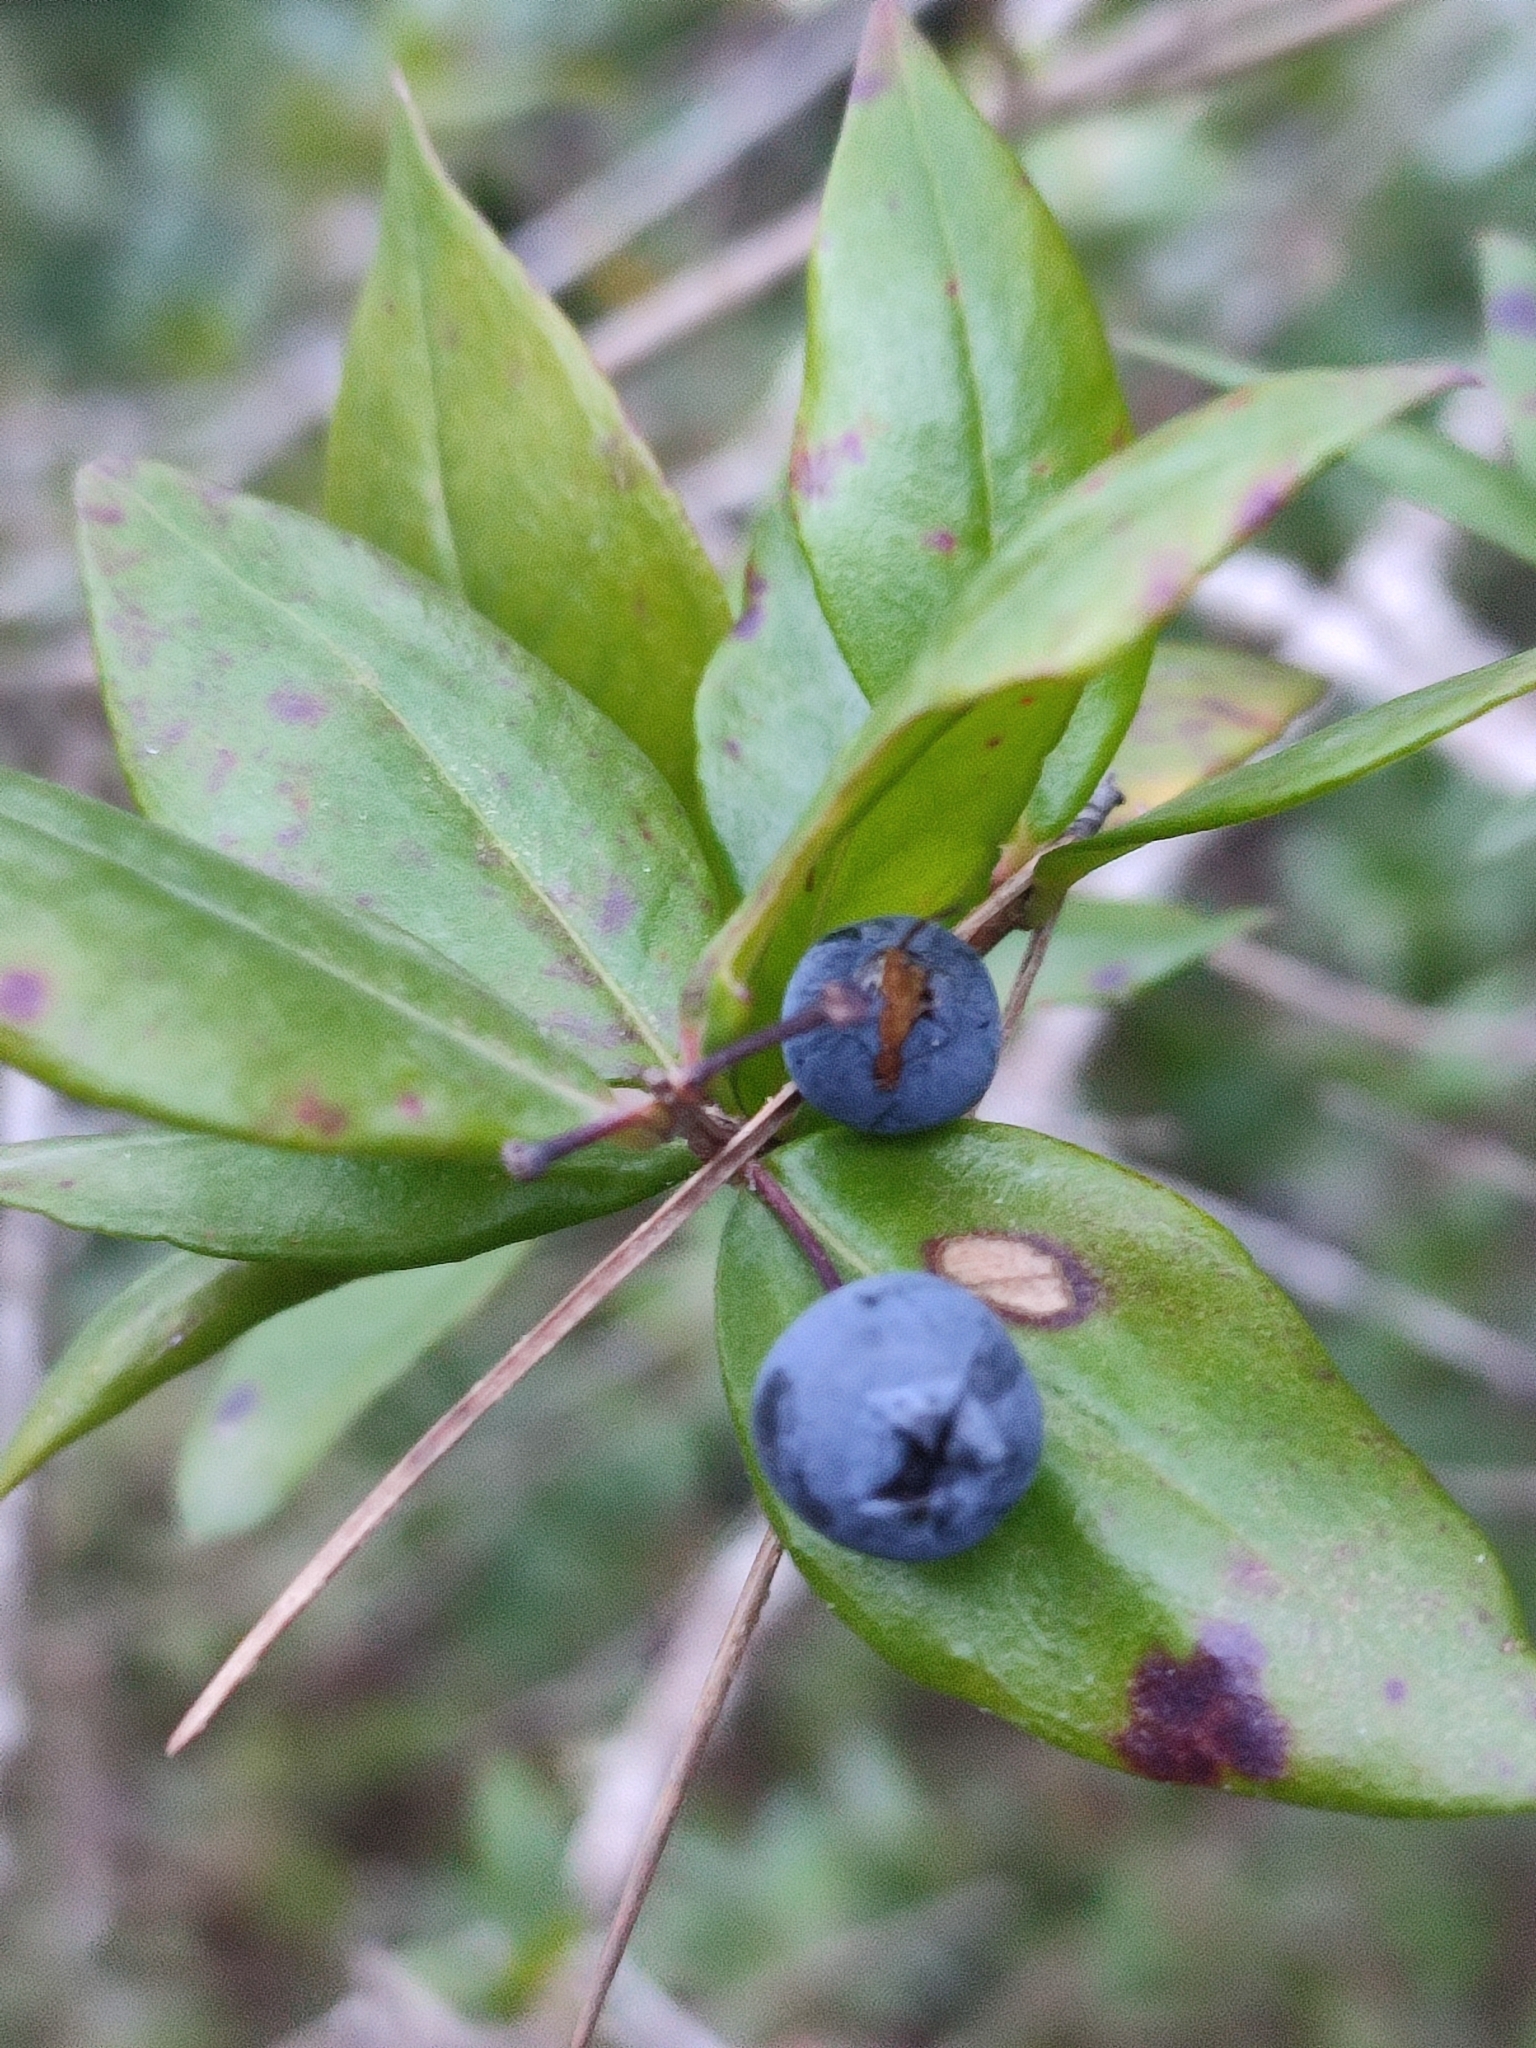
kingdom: Plantae
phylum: Tracheophyta
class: Magnoliopsida
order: Myrtales
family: Myrtaceae
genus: Myrtus
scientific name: Myrtus communis
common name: Myrtle
